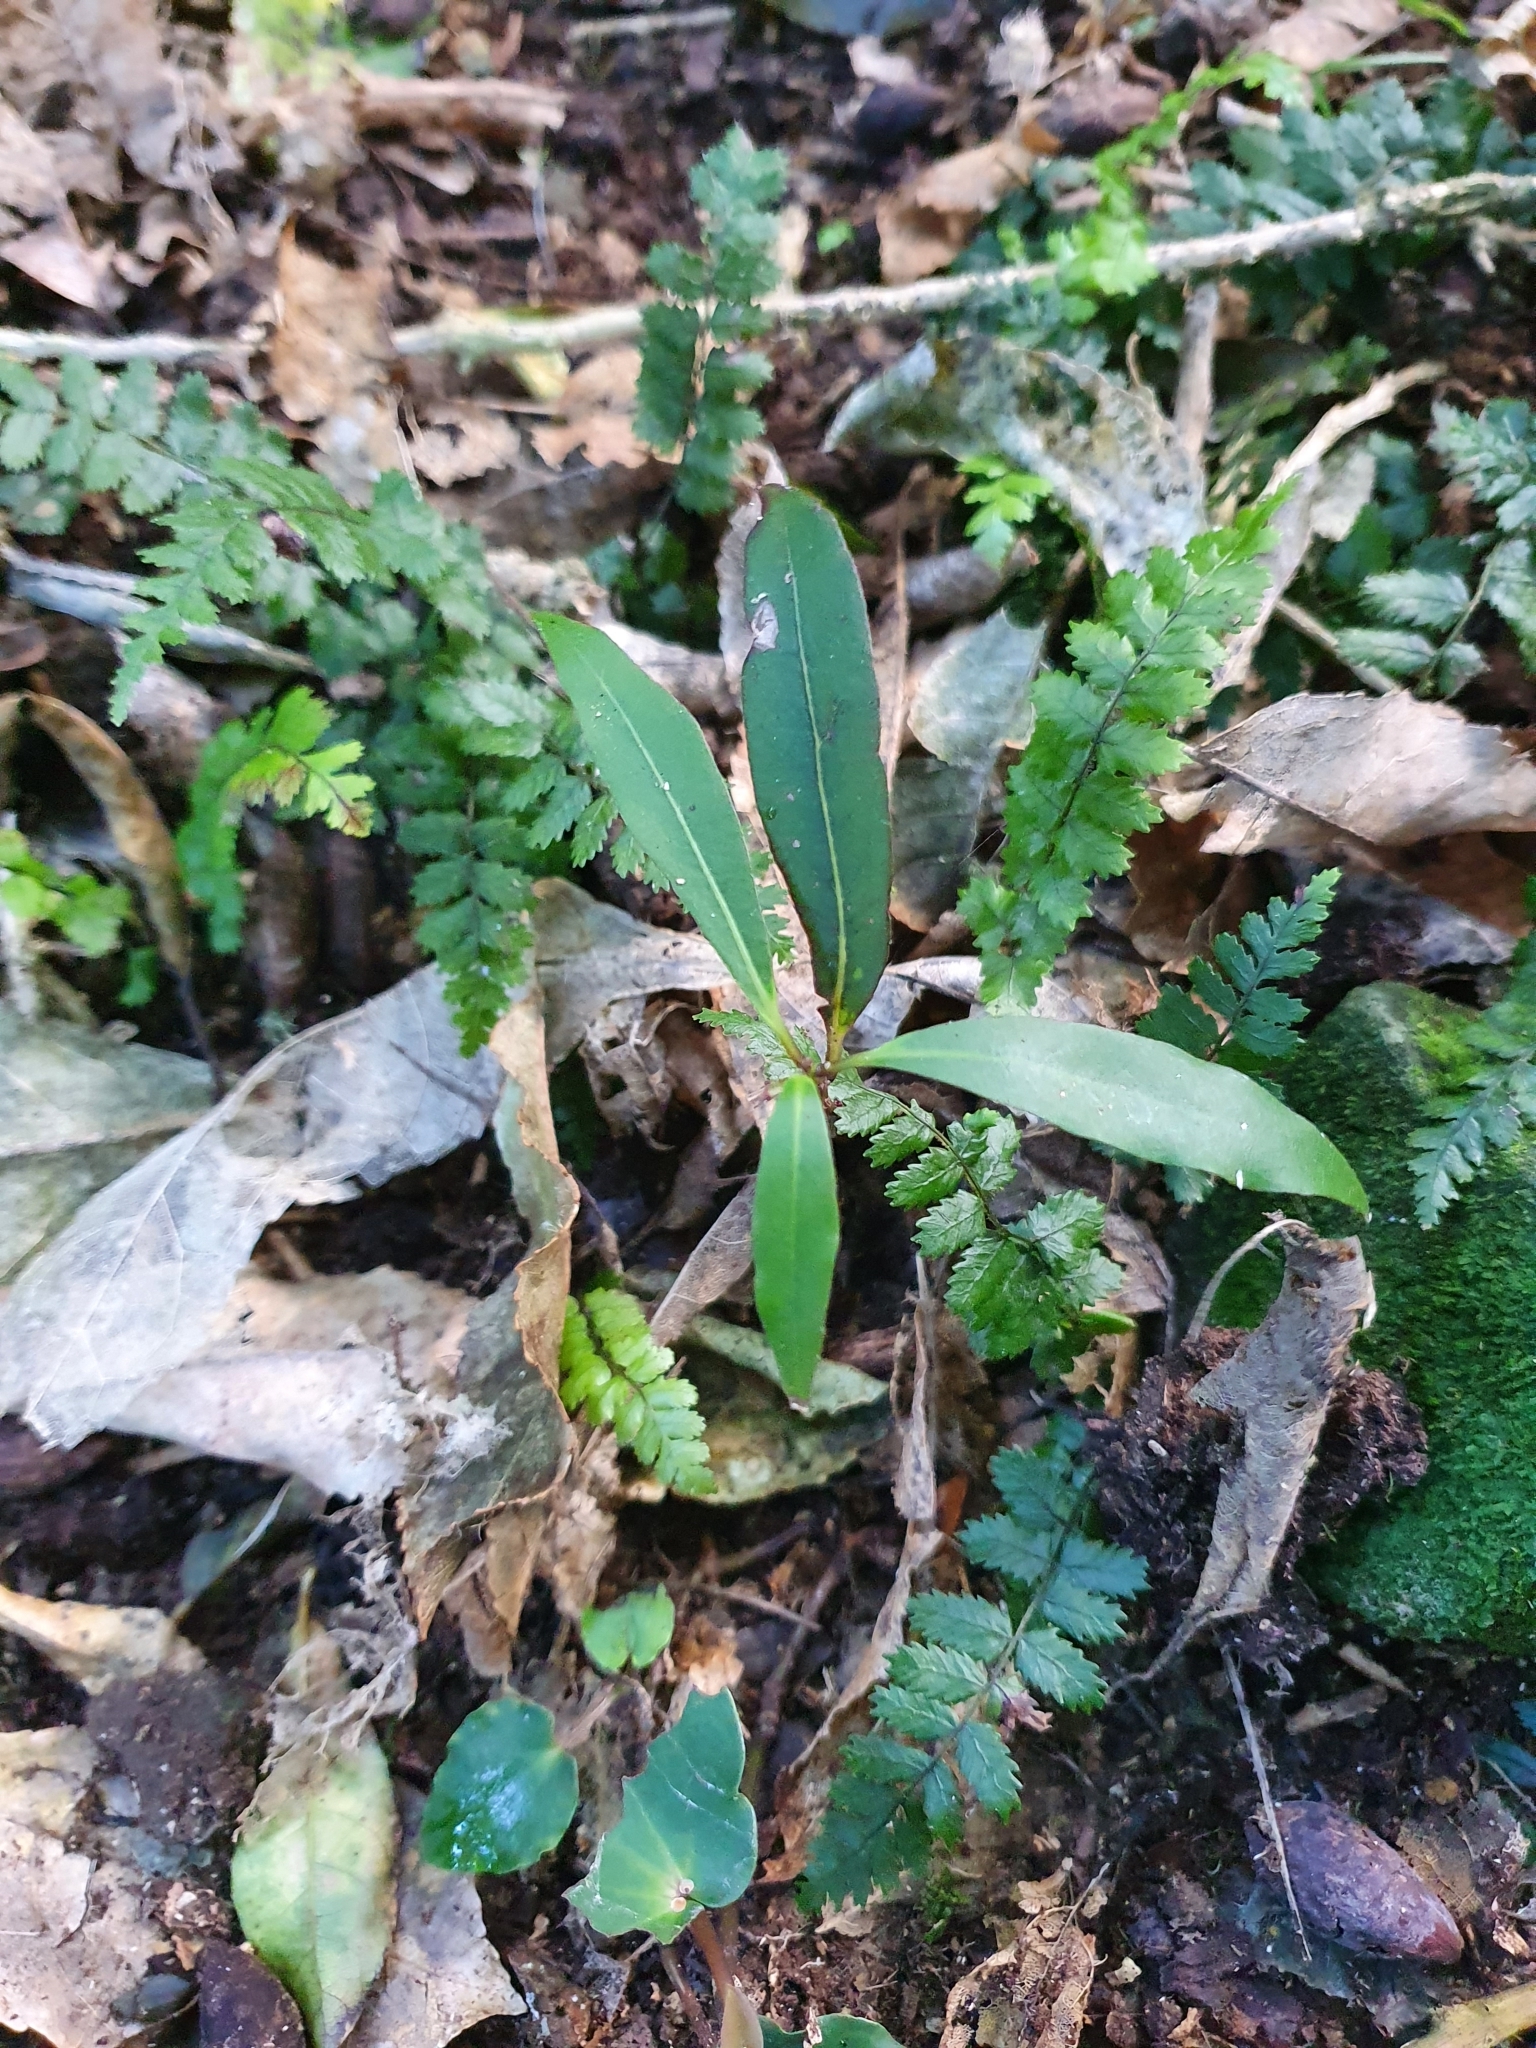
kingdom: Plantae
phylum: Tracheophyta
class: Magnoliopsida
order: Laurales
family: Lauraceae
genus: Beilschmiedia
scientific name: Beilschmiedia tawa
